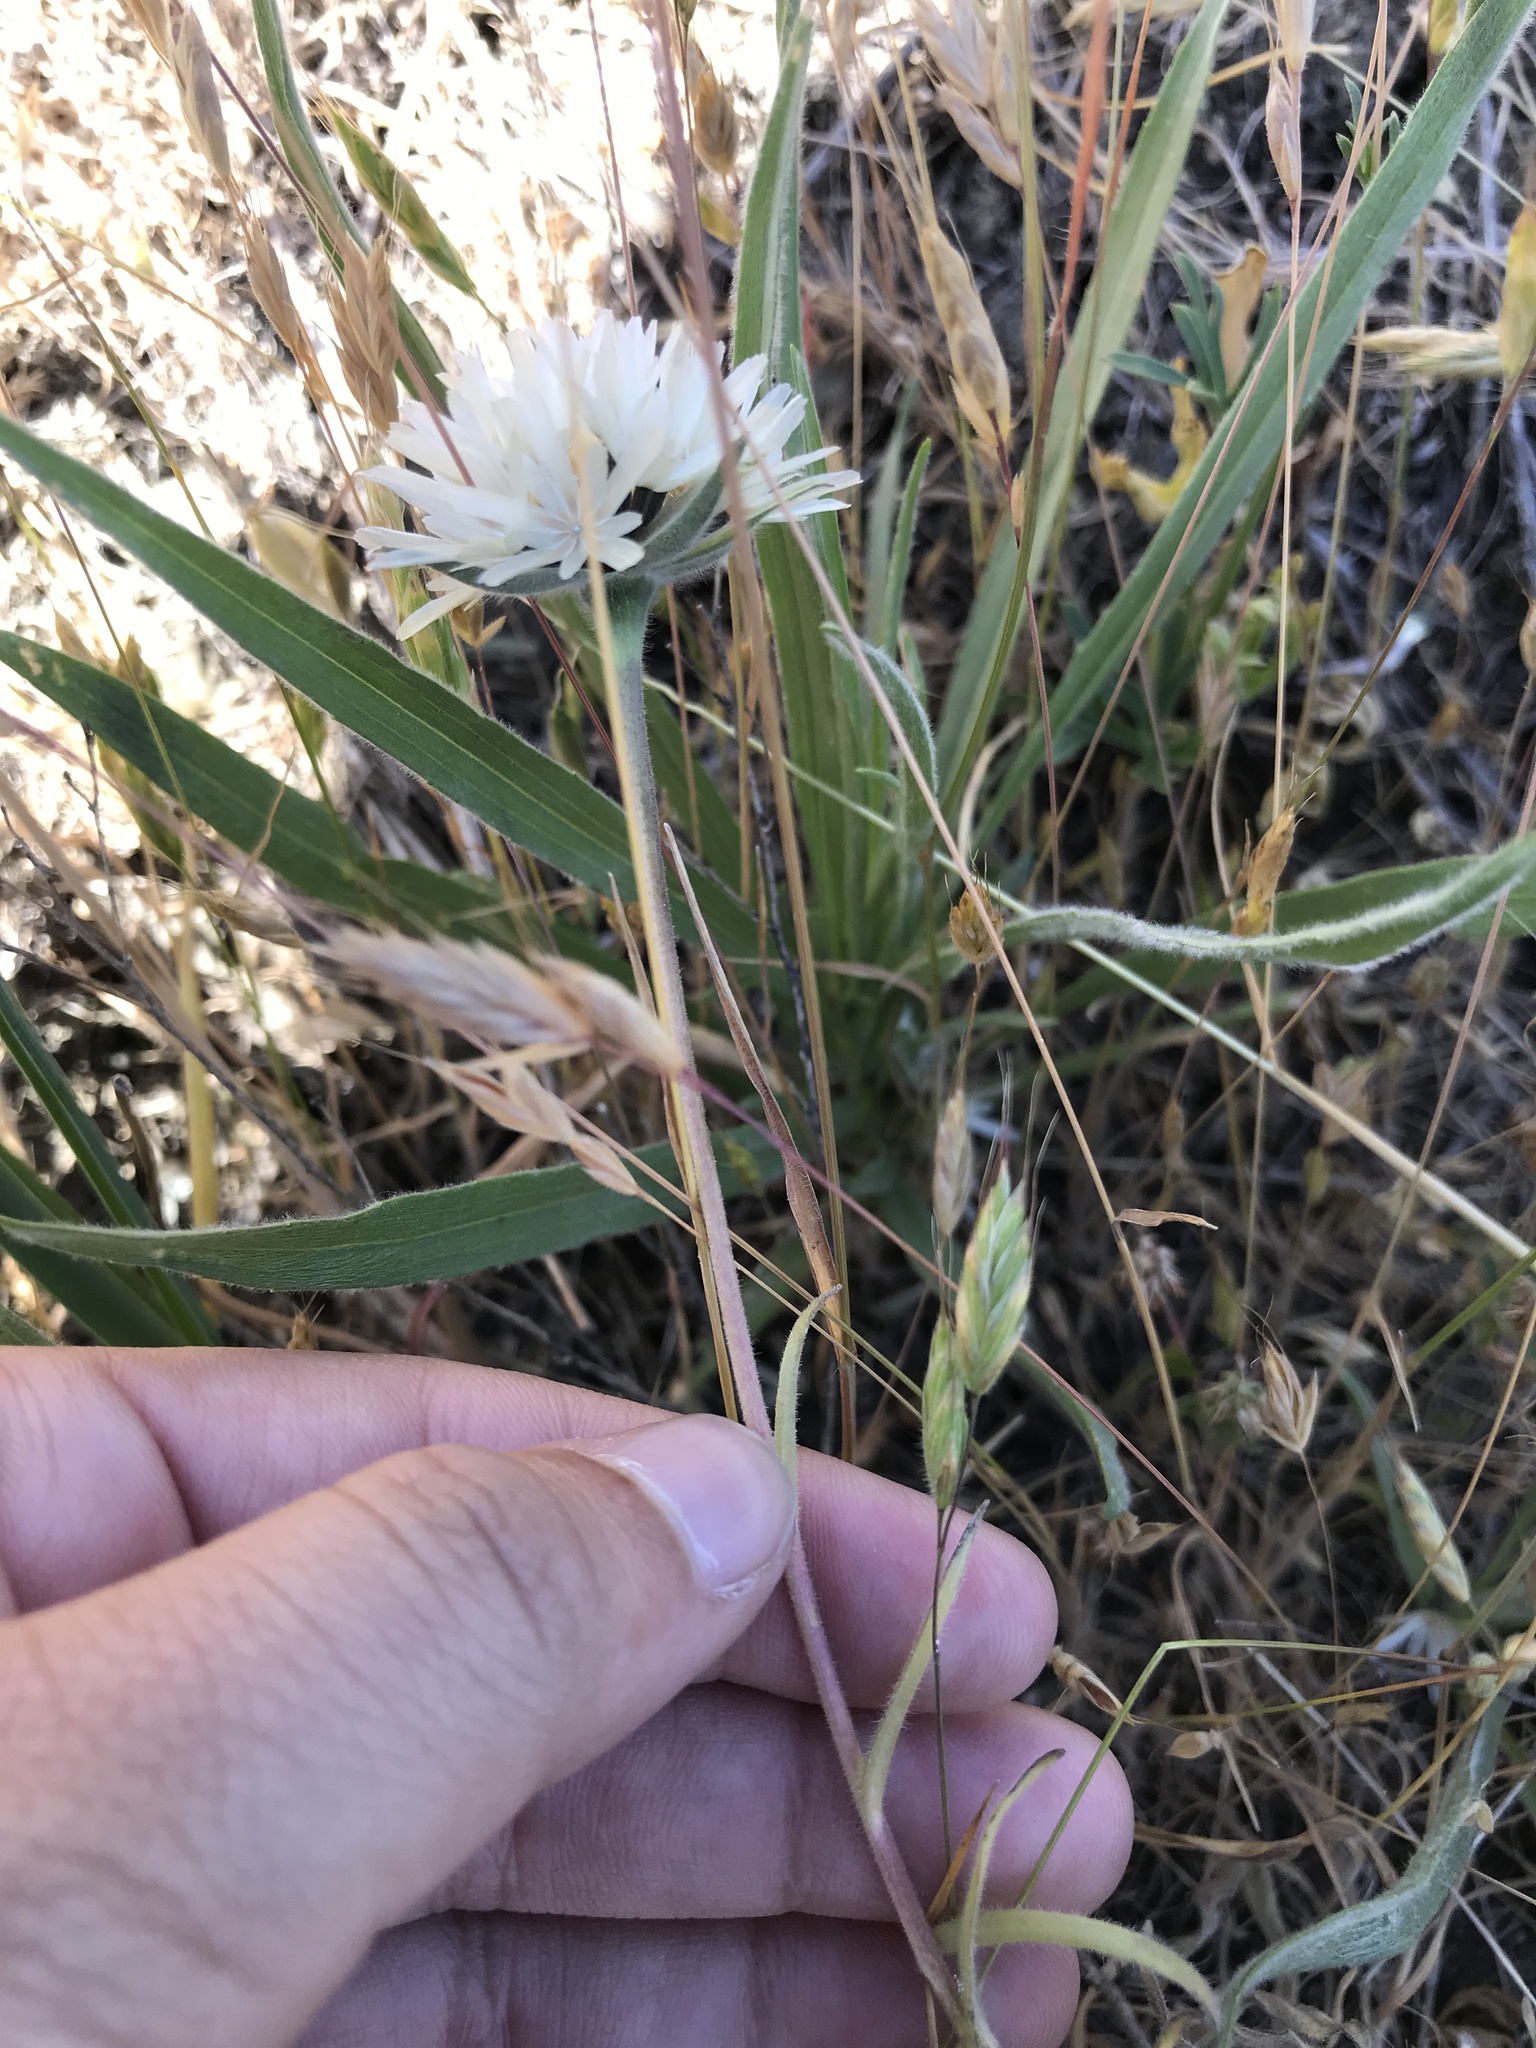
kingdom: Plantae
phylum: Tracheophyta
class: Magnoliopsida
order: Asterales
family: Asteraceae
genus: Achyrachaena
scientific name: Achyrachaena mollis
